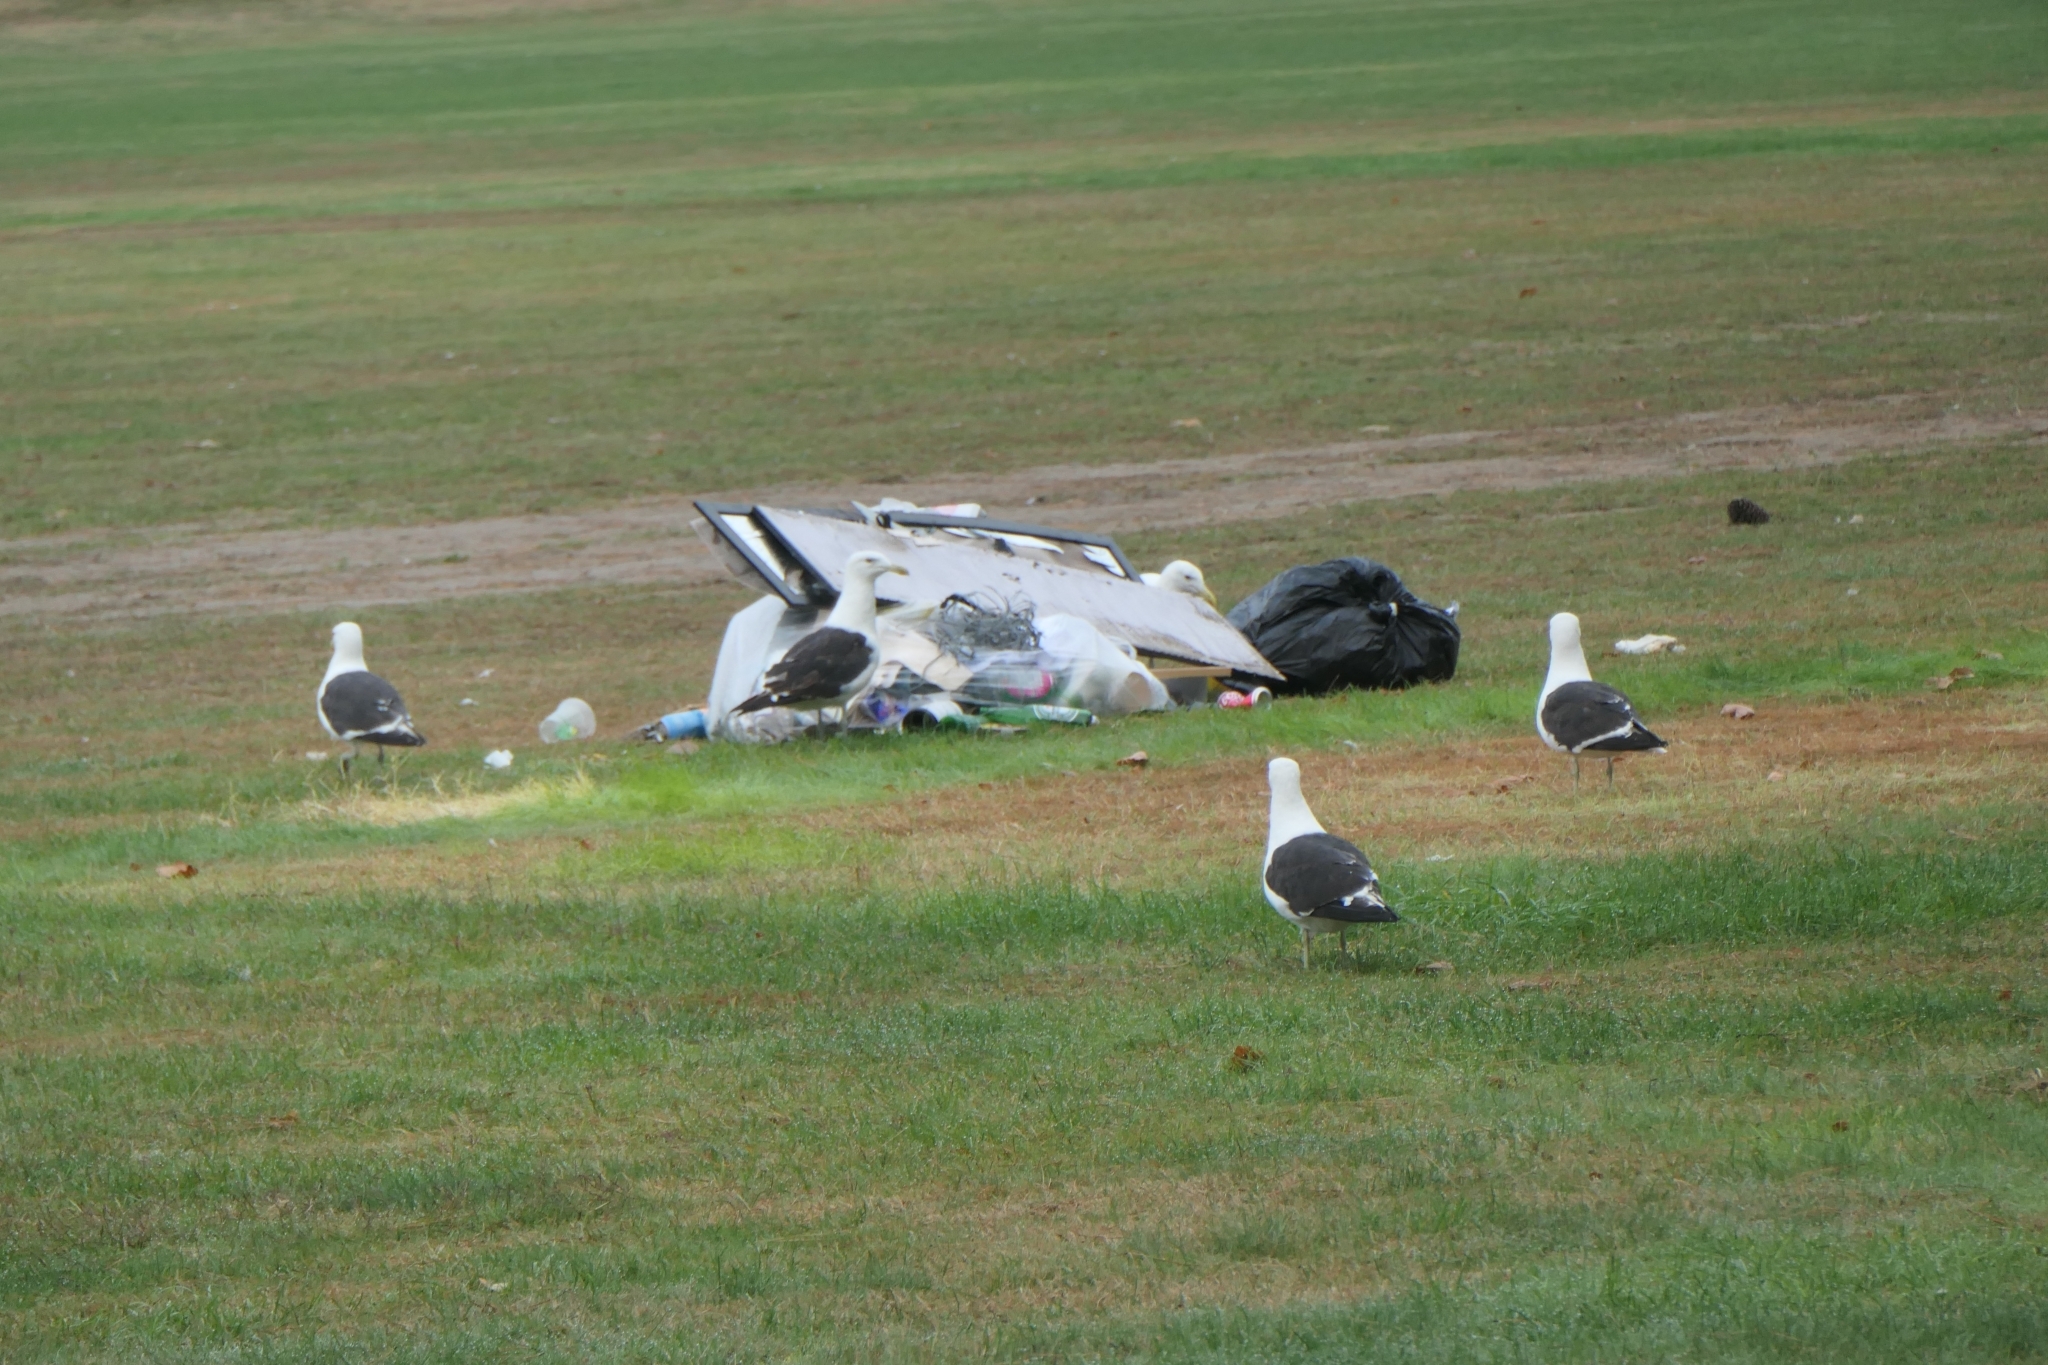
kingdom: Animalia
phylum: Chordata
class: Aves
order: Charadriiformes
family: Laridae
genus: Larus
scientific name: Larus dominicanus
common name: Kelp gull
